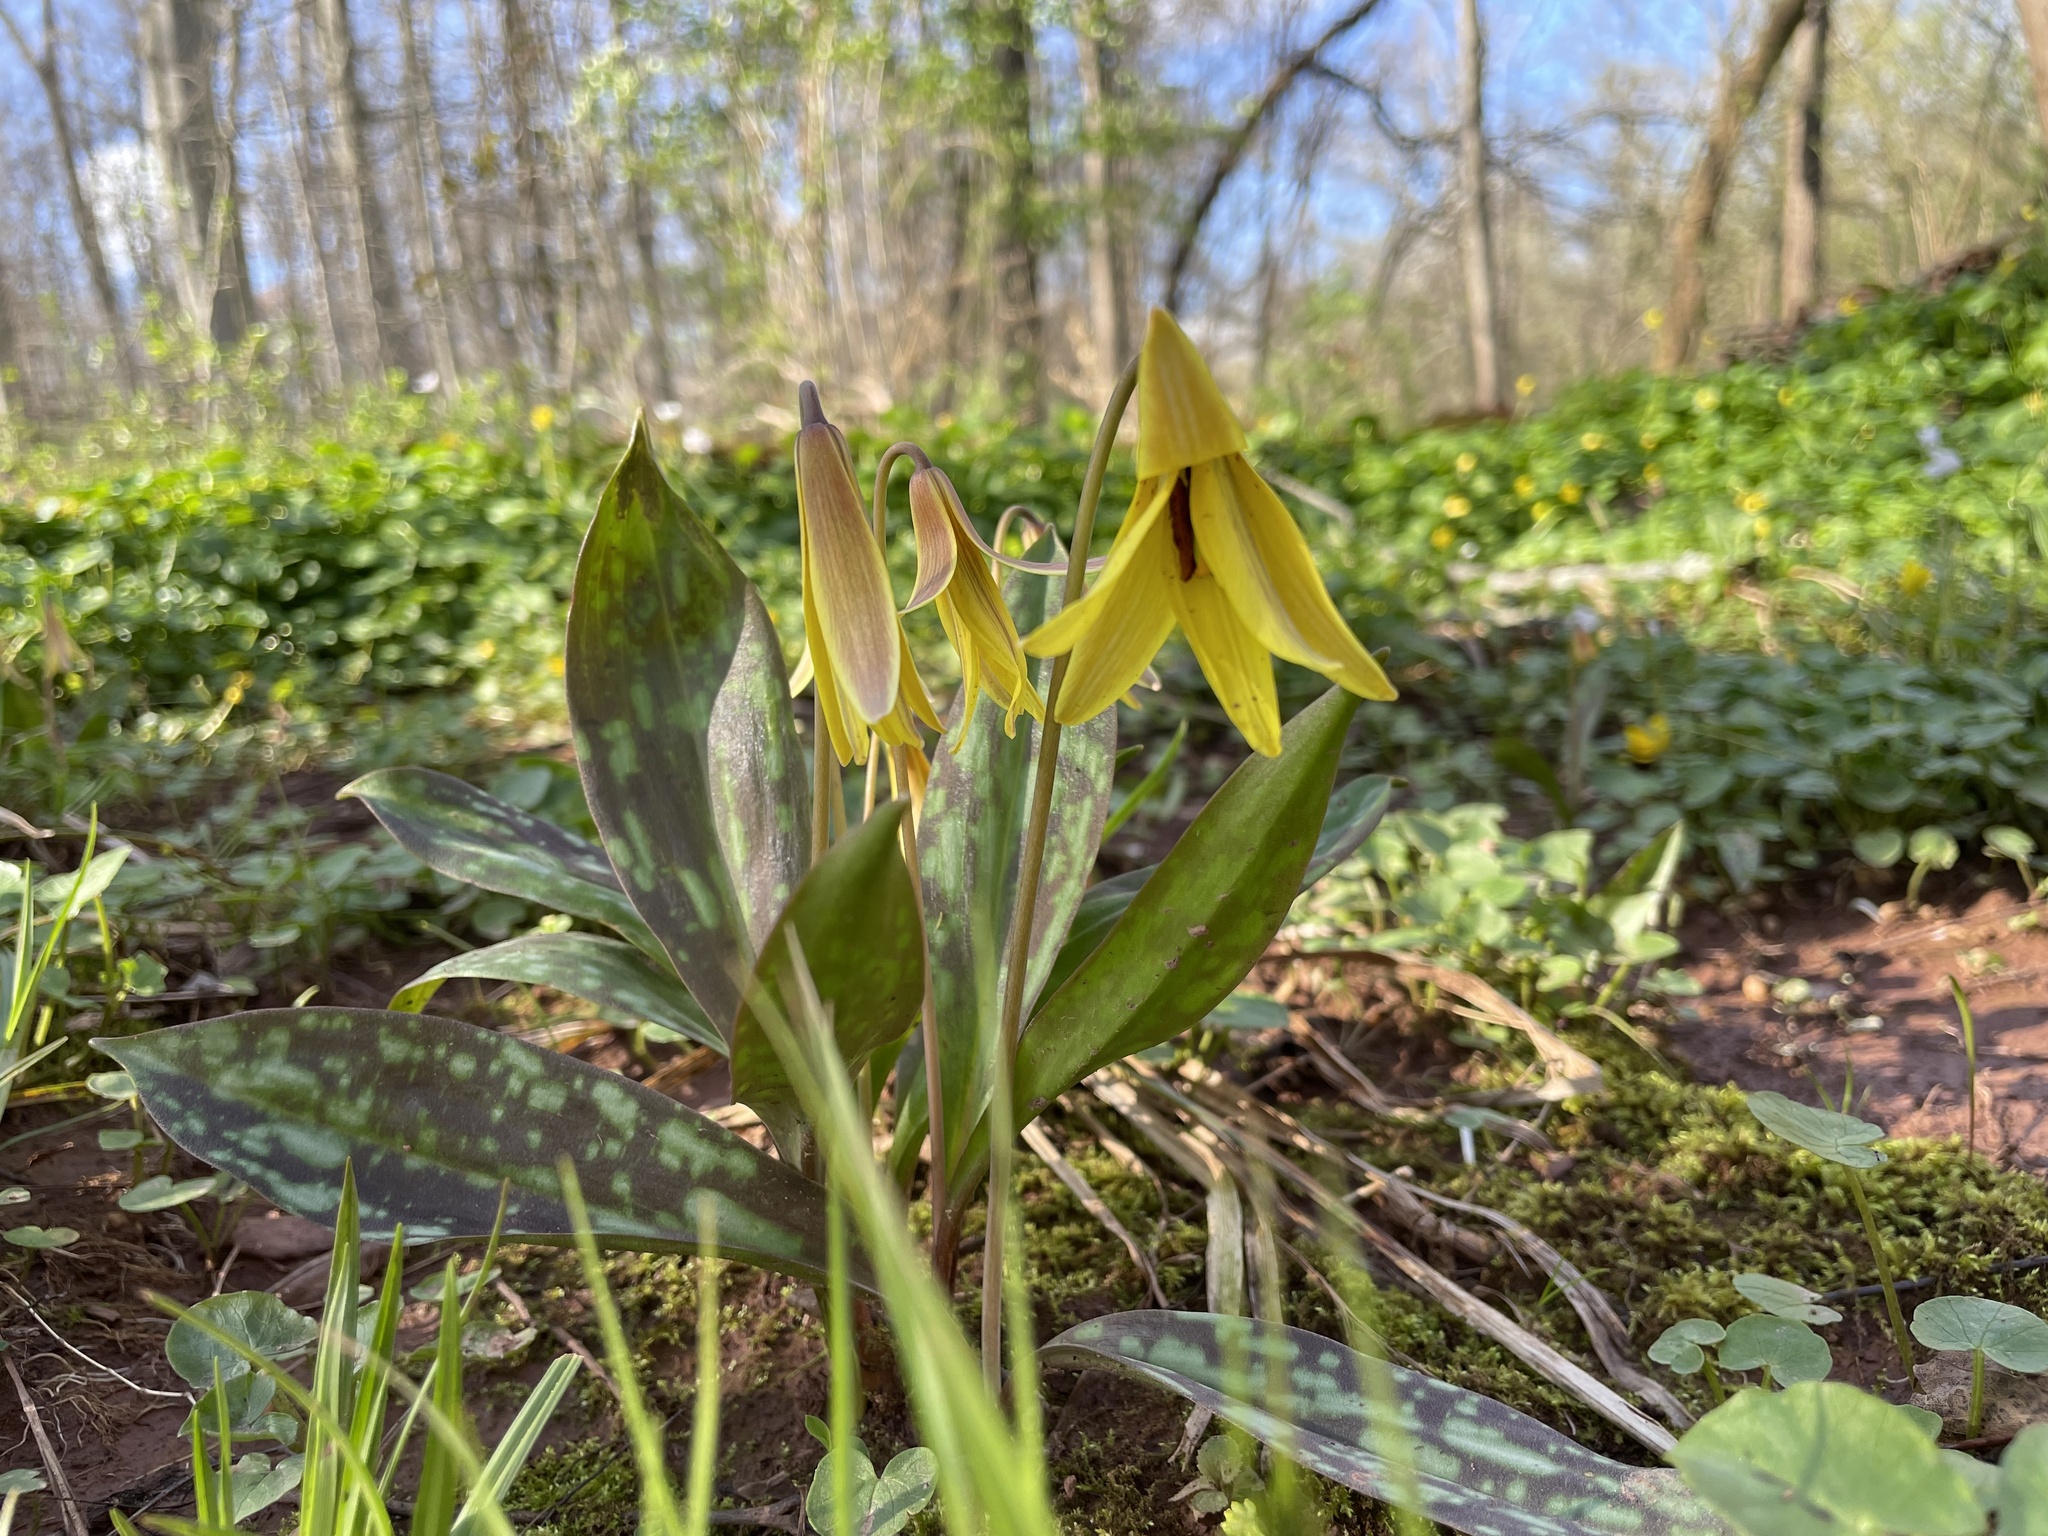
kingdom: Plantae
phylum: Tracheophyta
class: Liliopsida
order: Liliales
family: Liliaceae
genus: Erythronium
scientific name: Erythronium americanum
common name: Yellow adder's-tongue
